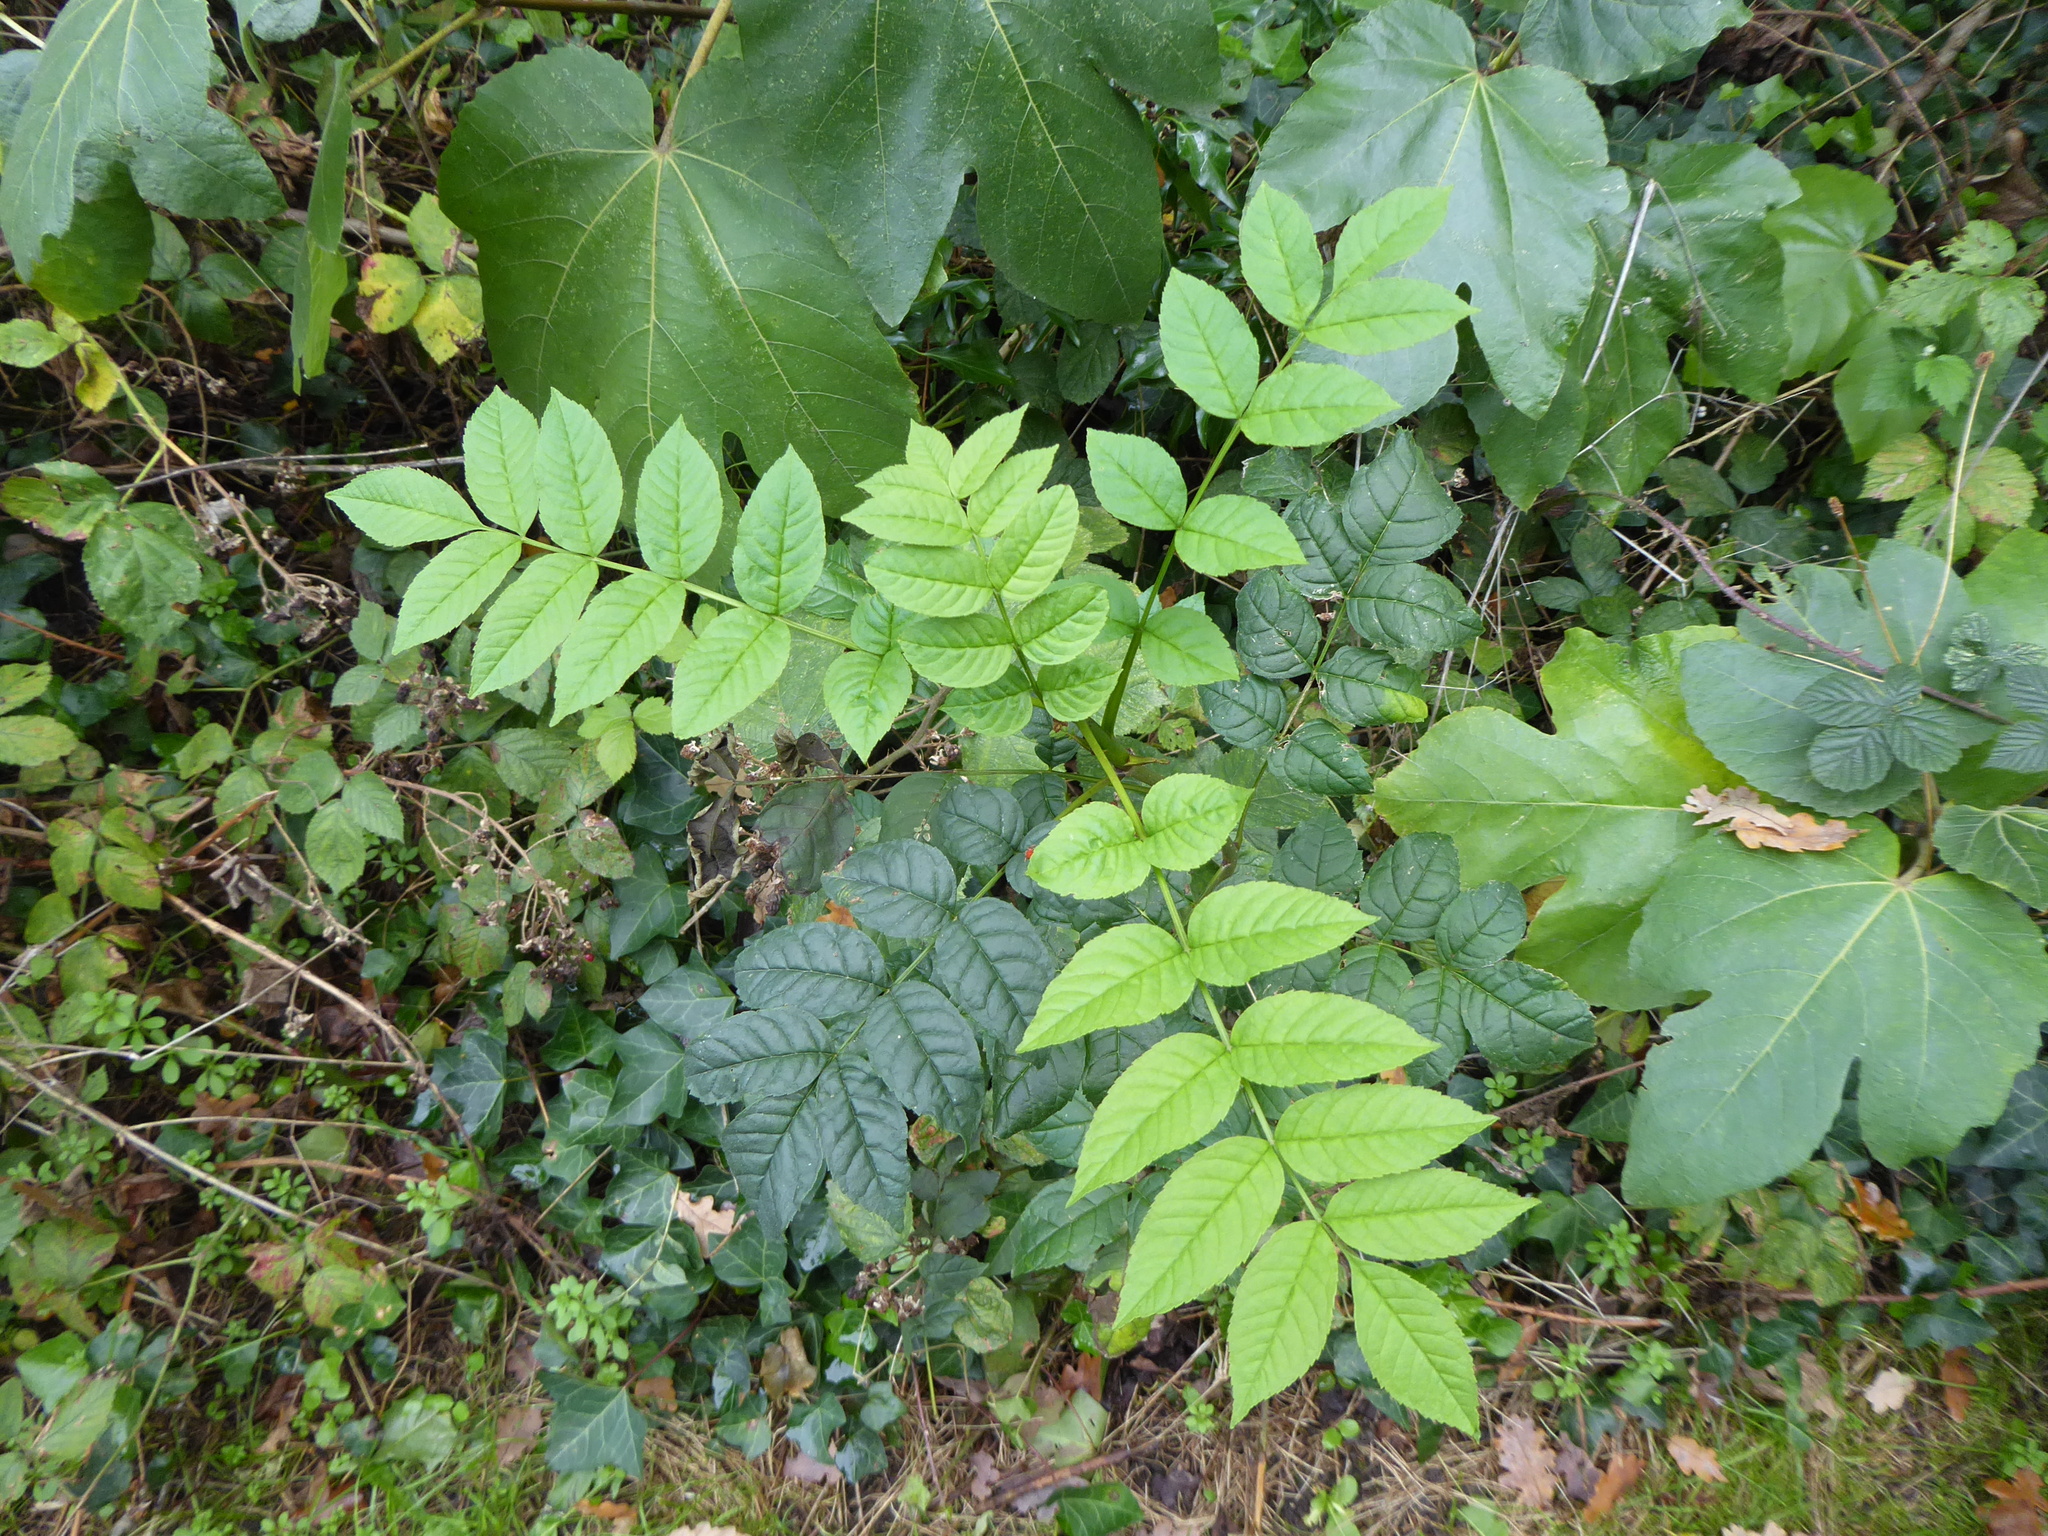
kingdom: Plantae
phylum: Tracheophyta
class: Magnoliopsida
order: Lamiales
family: Oleaceae
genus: Fraxinus
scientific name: Fraxinus excelsior
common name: European ash
